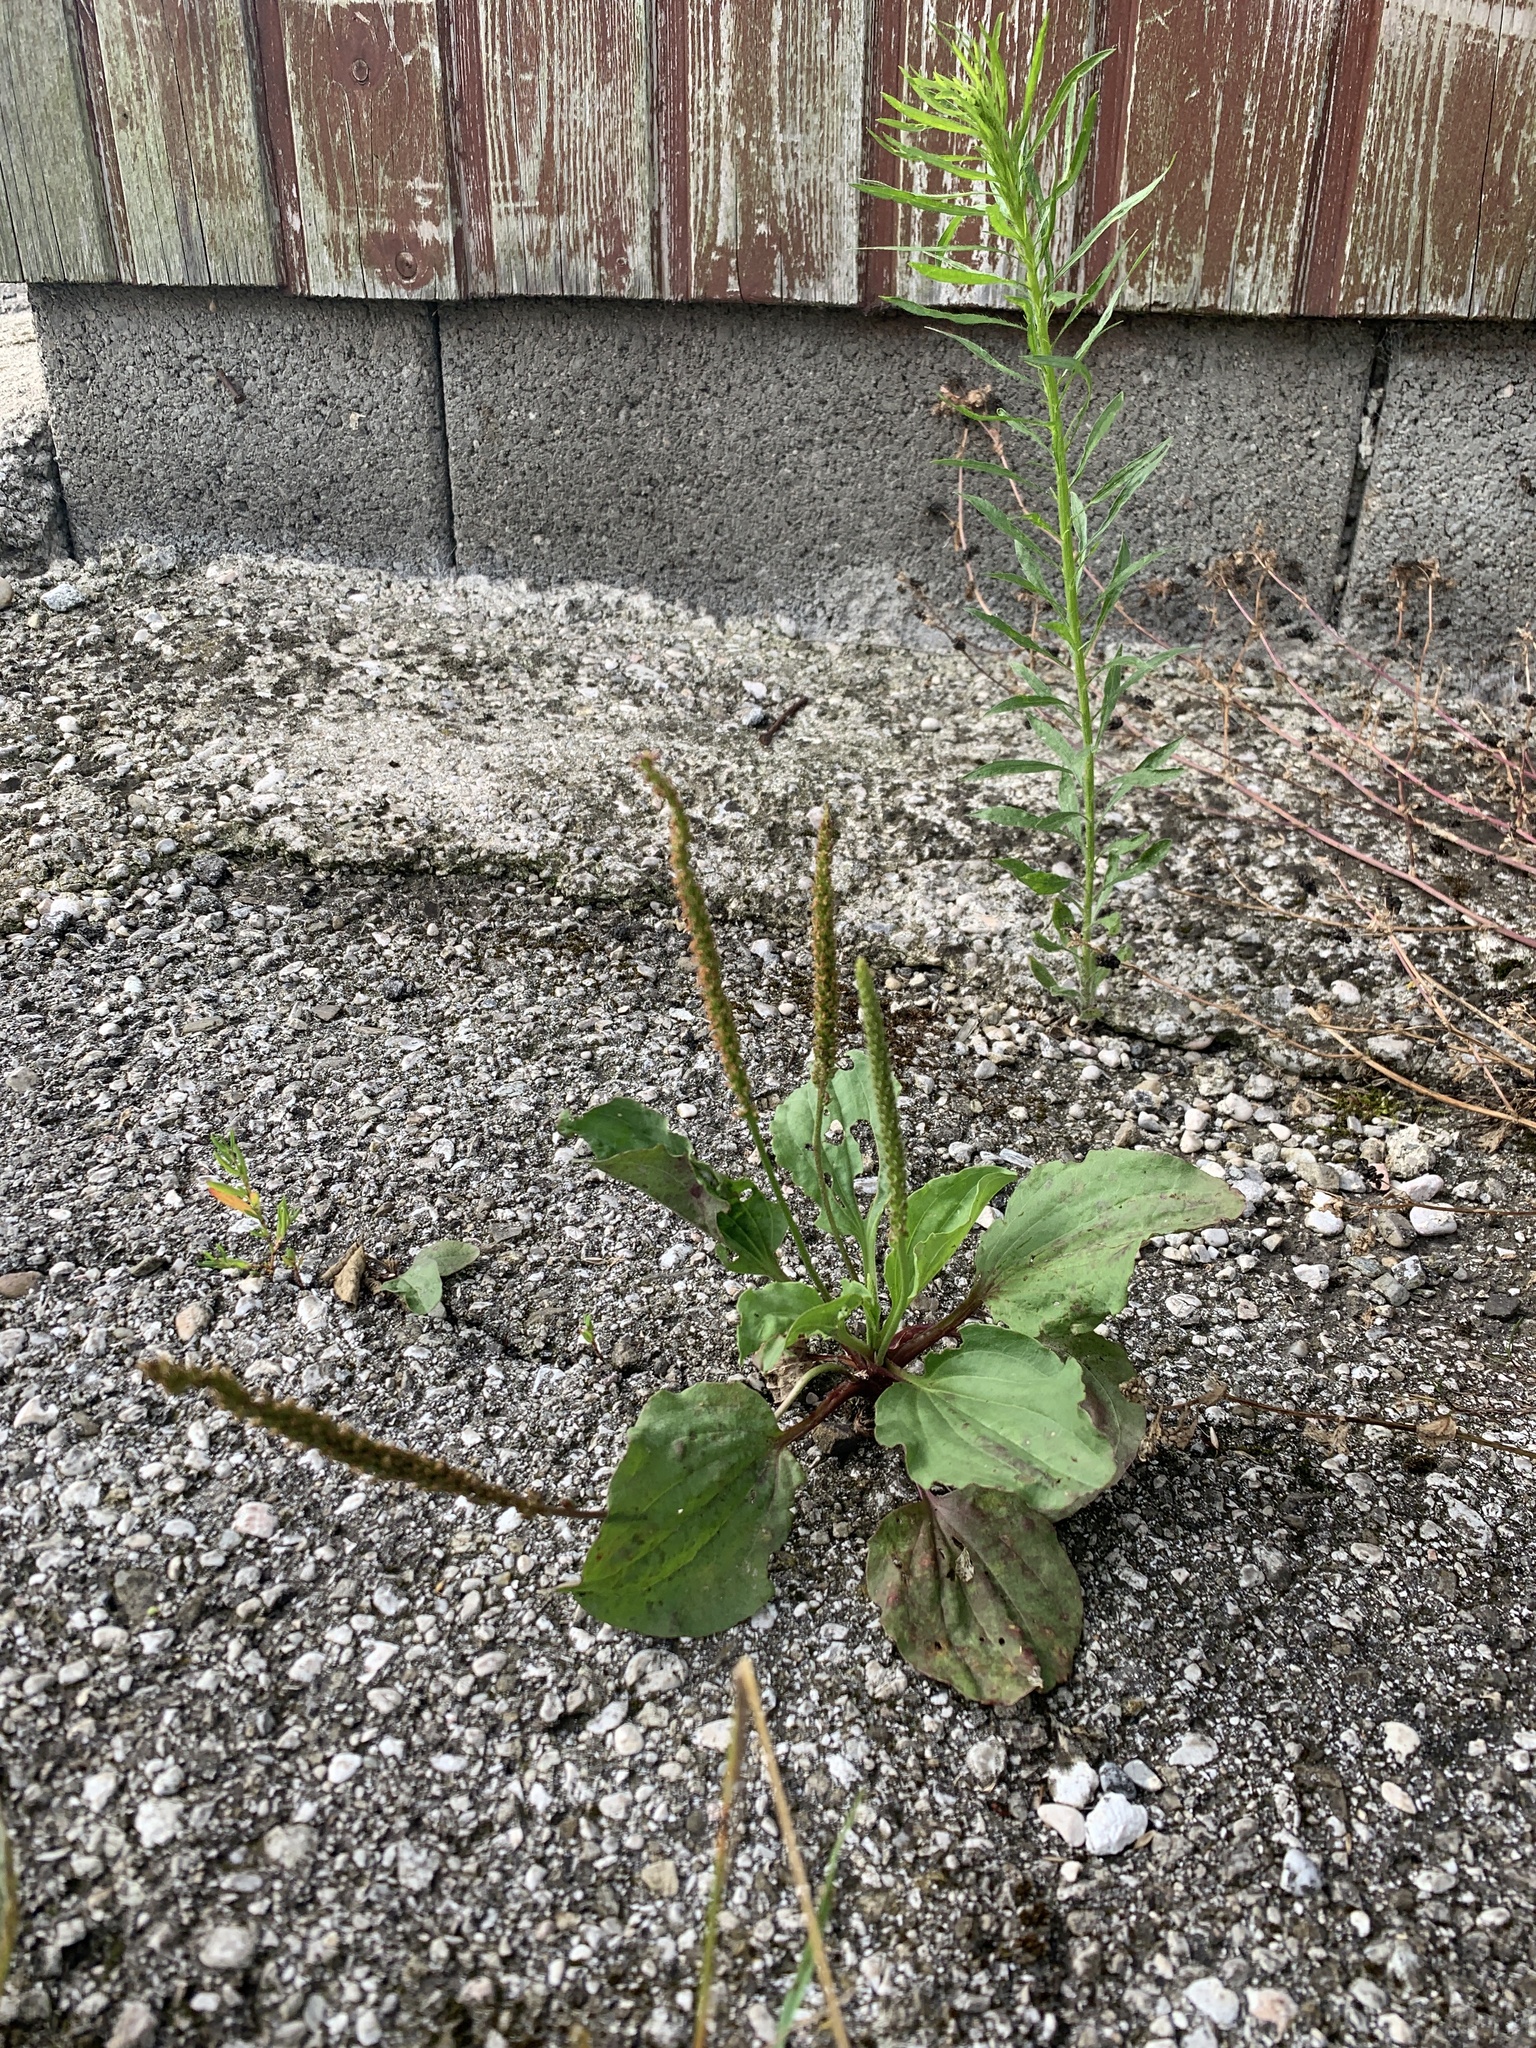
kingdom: Plantae
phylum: Tracheophyta
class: Magnoliopsida
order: Lamiales
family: Plantaginaceae
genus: Plantago
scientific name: Plantago major
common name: Common plantain
